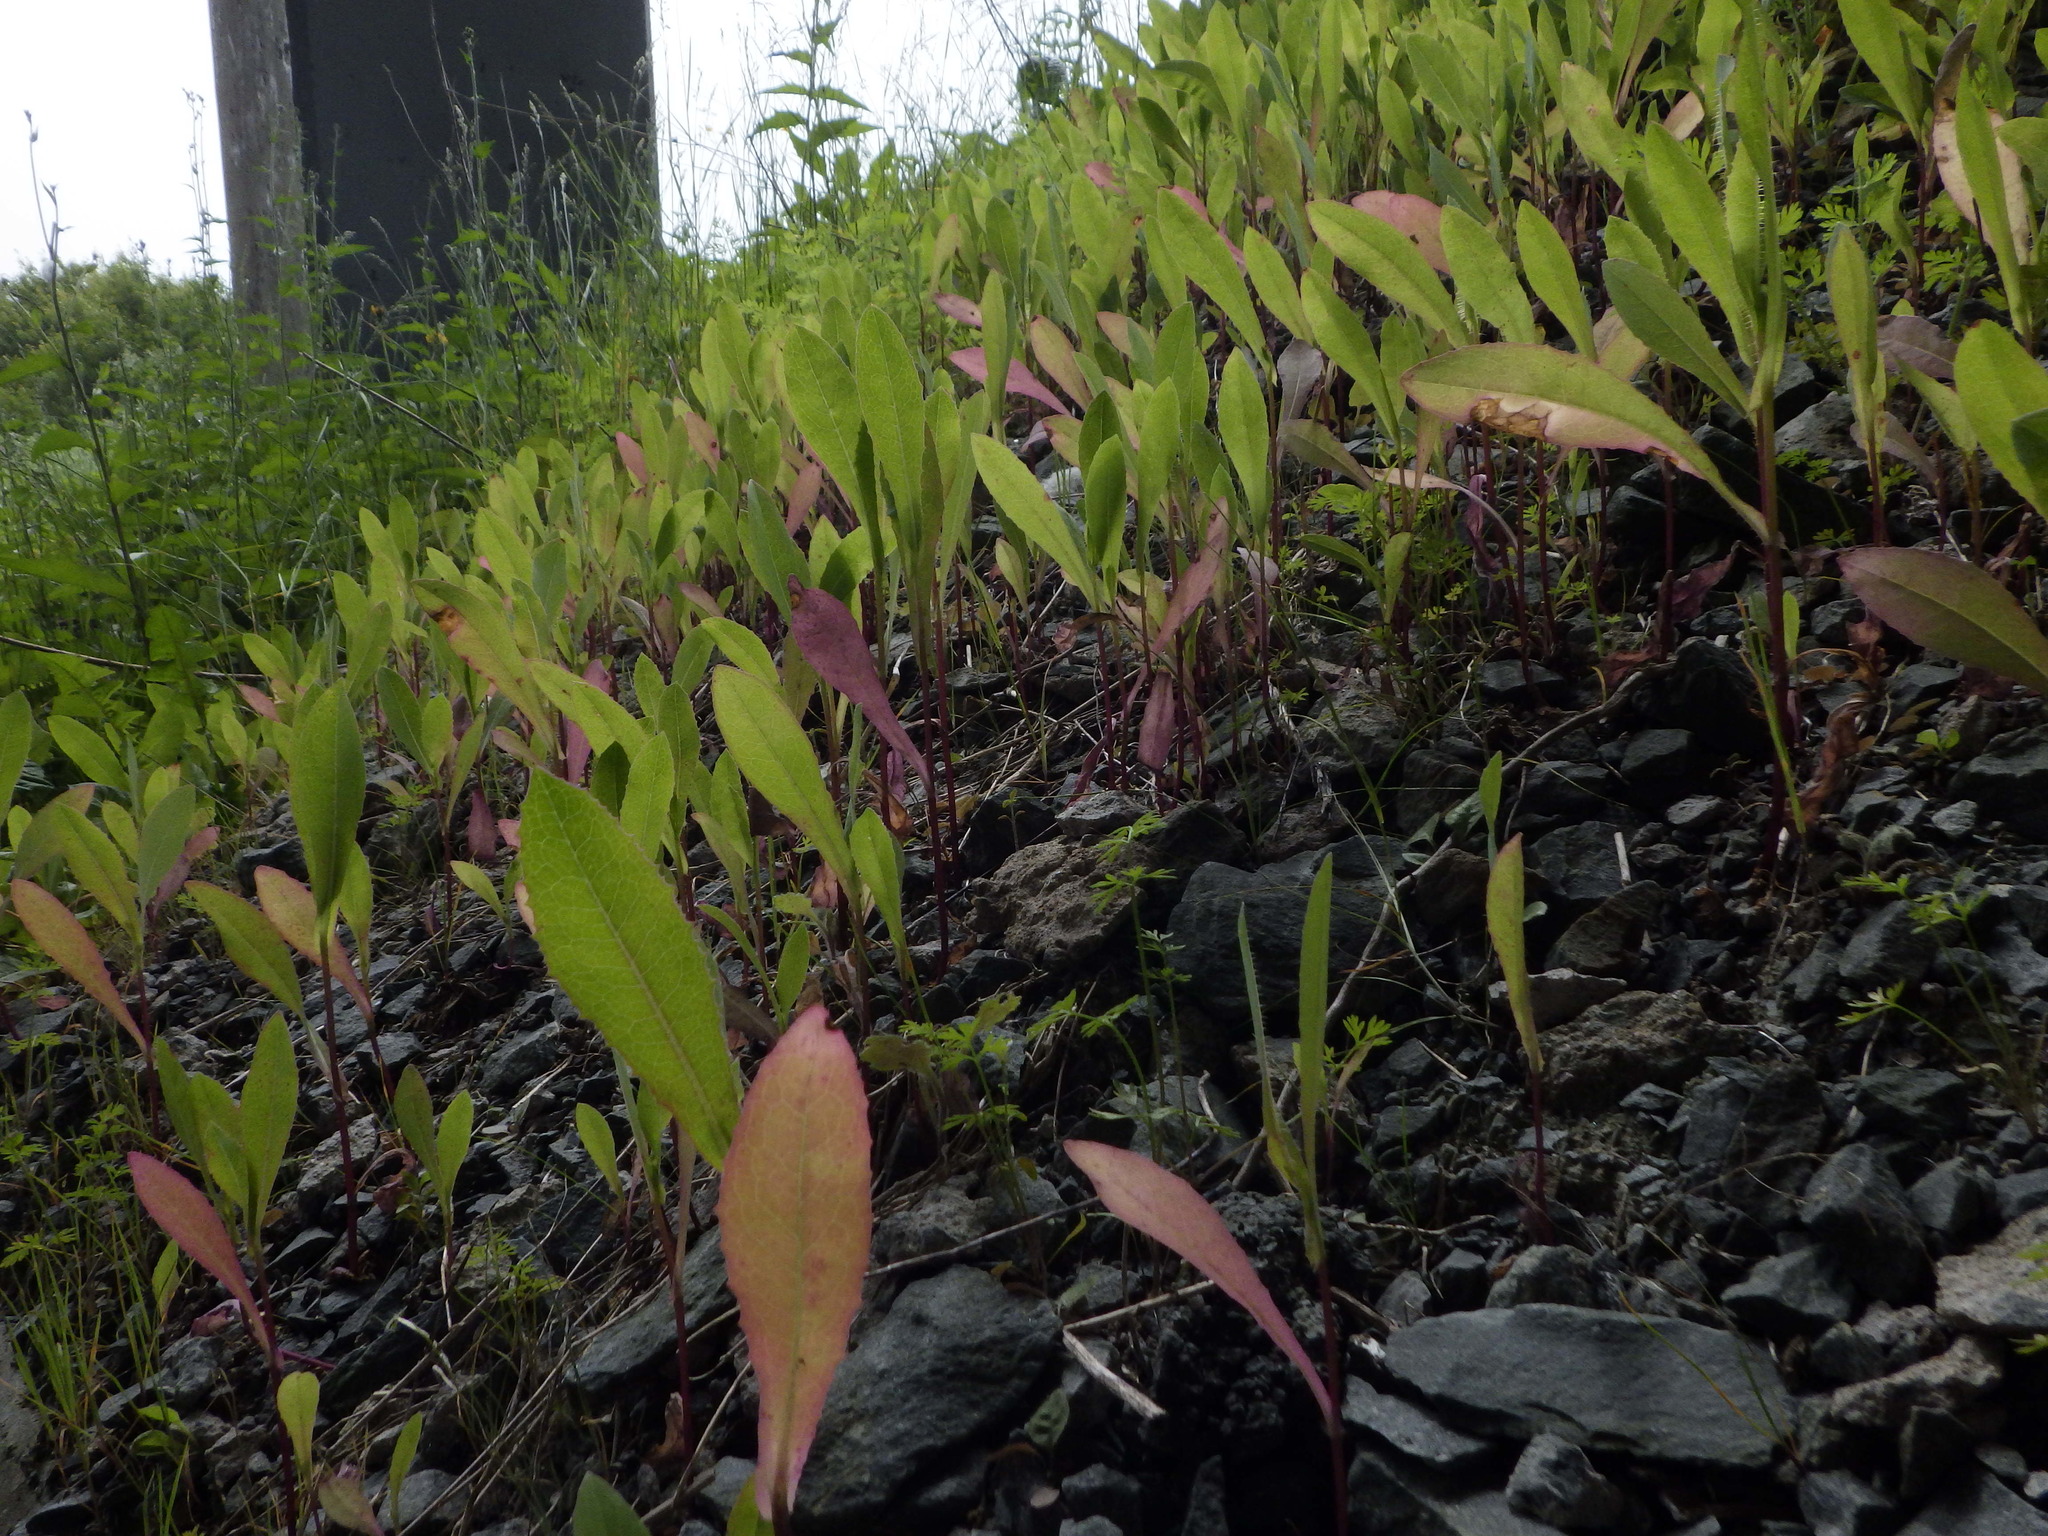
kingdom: Plantae
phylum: Tracheophyta
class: Magnoliopsida
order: Asterales
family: Asteraceae
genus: Lactuca
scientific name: Lactuca serriola
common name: Prickly lettuce
